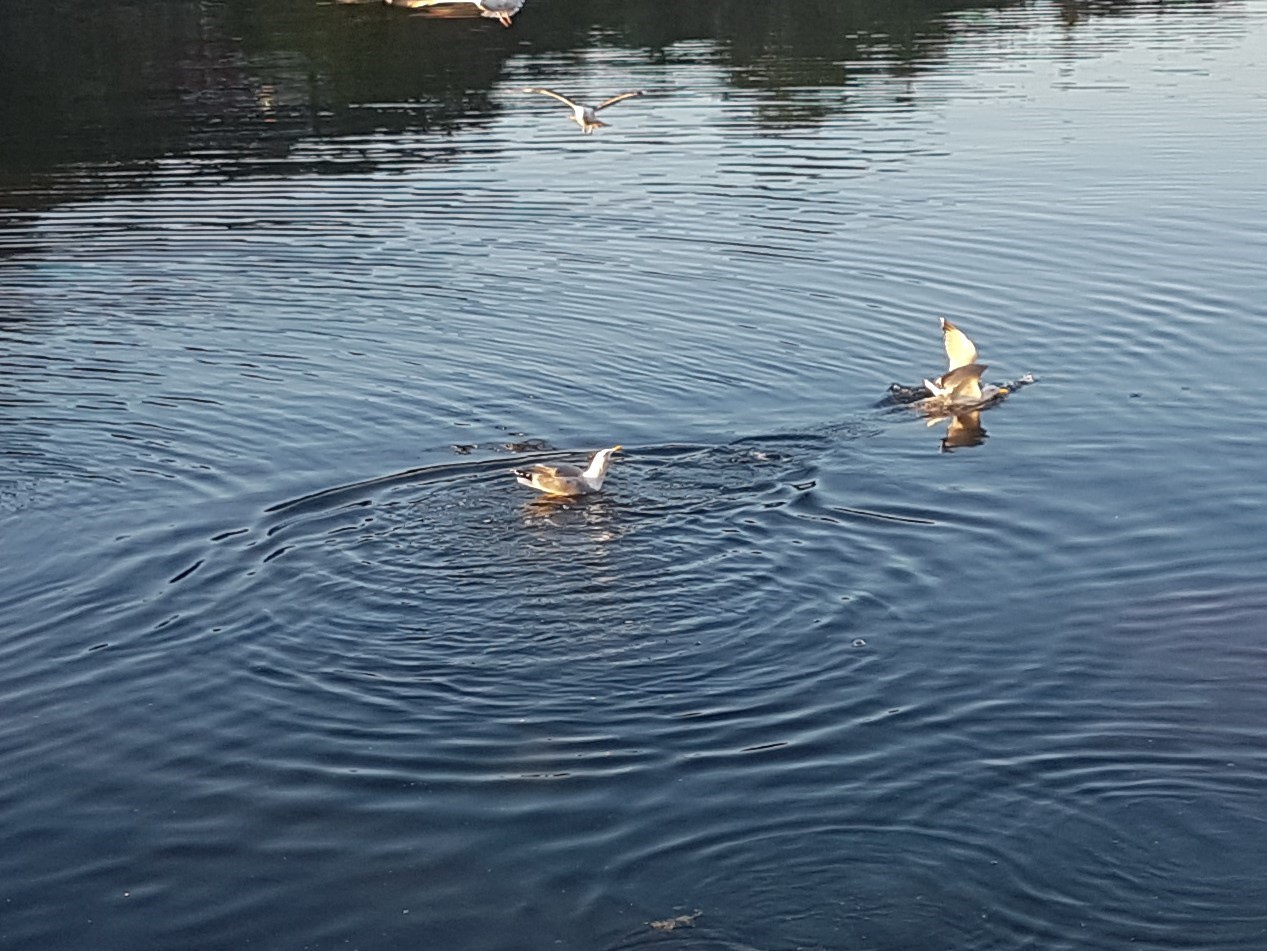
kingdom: Animalia
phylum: Chordata
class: Aves
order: Charadriiformes
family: Laridae
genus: Larus
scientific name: Larus argentatus
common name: Herring gull
